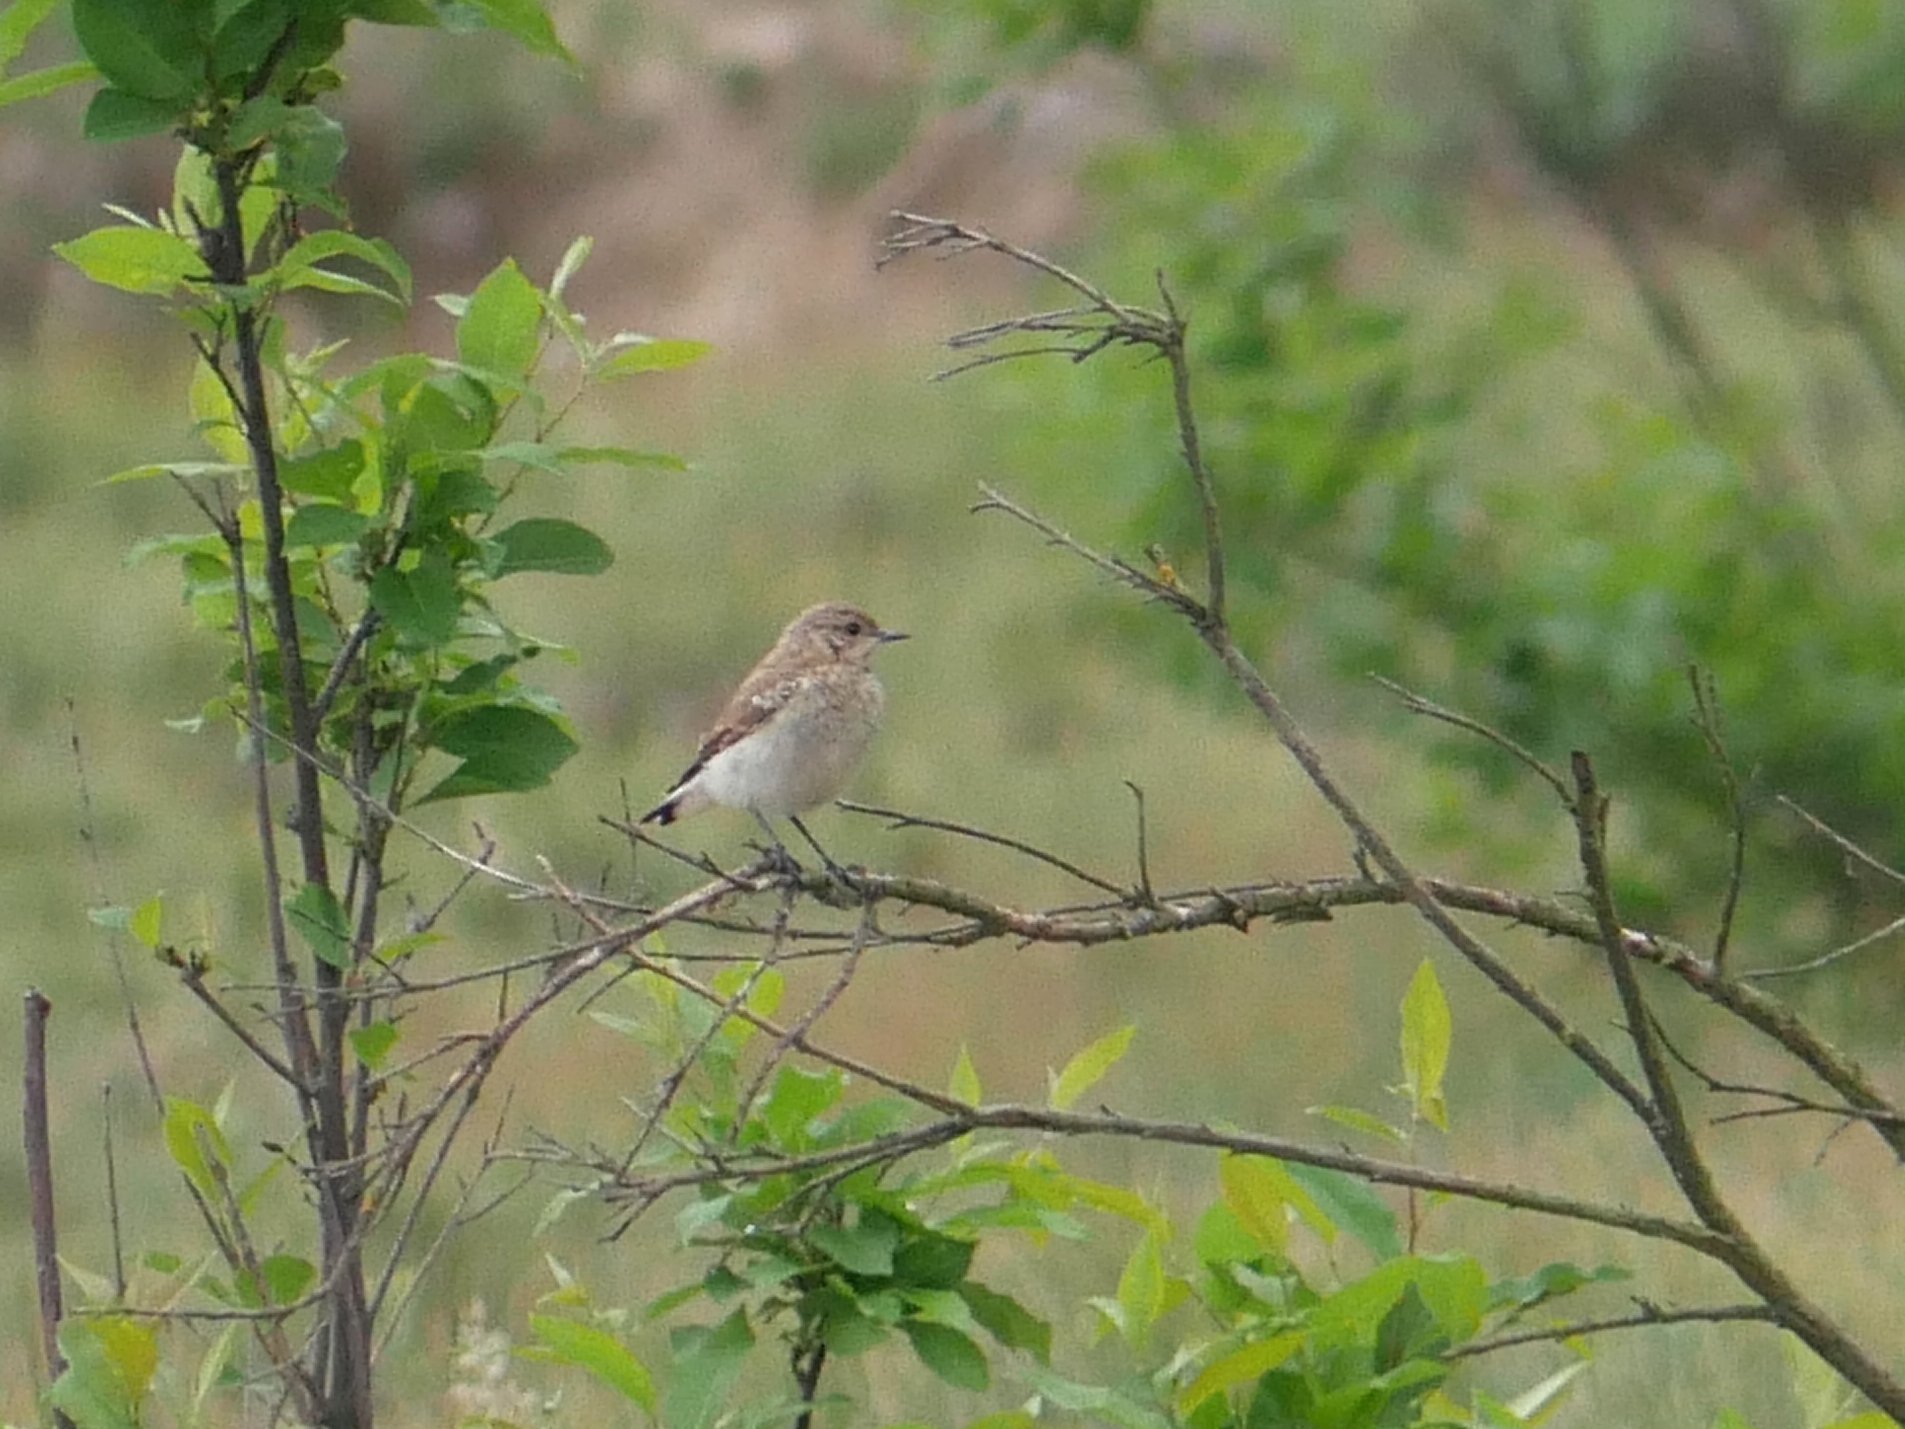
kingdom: Animalia
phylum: Chordata
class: Aves
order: Passeriformes
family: Muscicapidae
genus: Oenanthe
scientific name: Oenanthe oenanthe
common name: Northern wheatear
